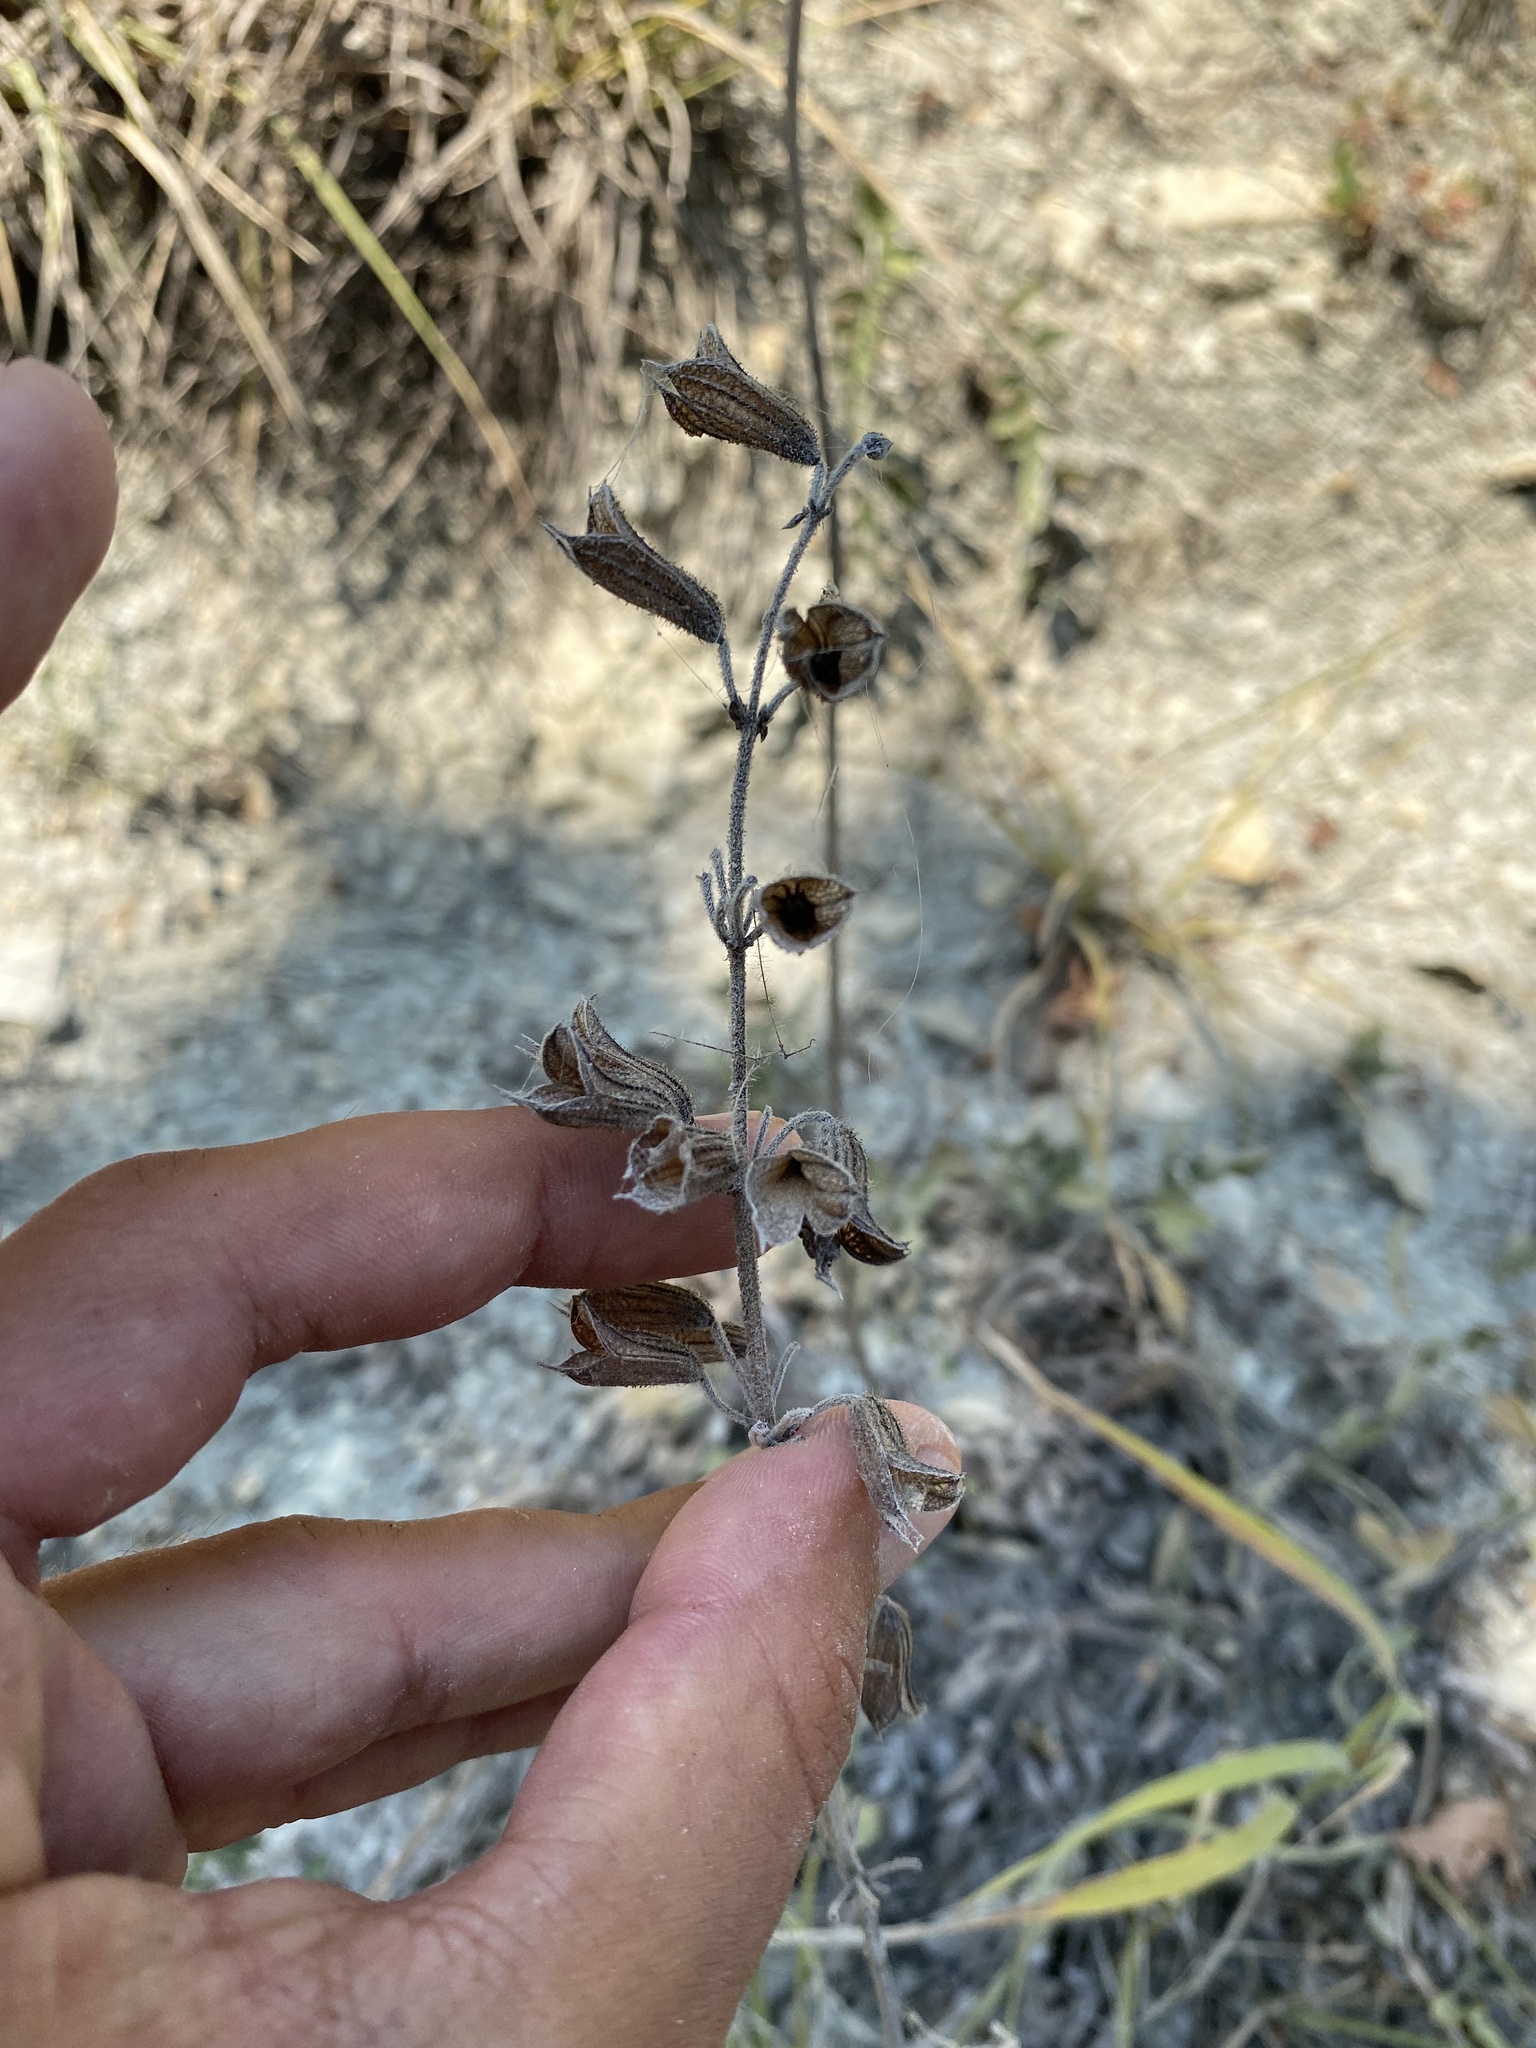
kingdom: Plantae
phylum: Tracheophyta
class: Magnoliopsida
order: Lamiales
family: Lamiaceae
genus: Salvia
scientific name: Salvia ringens
